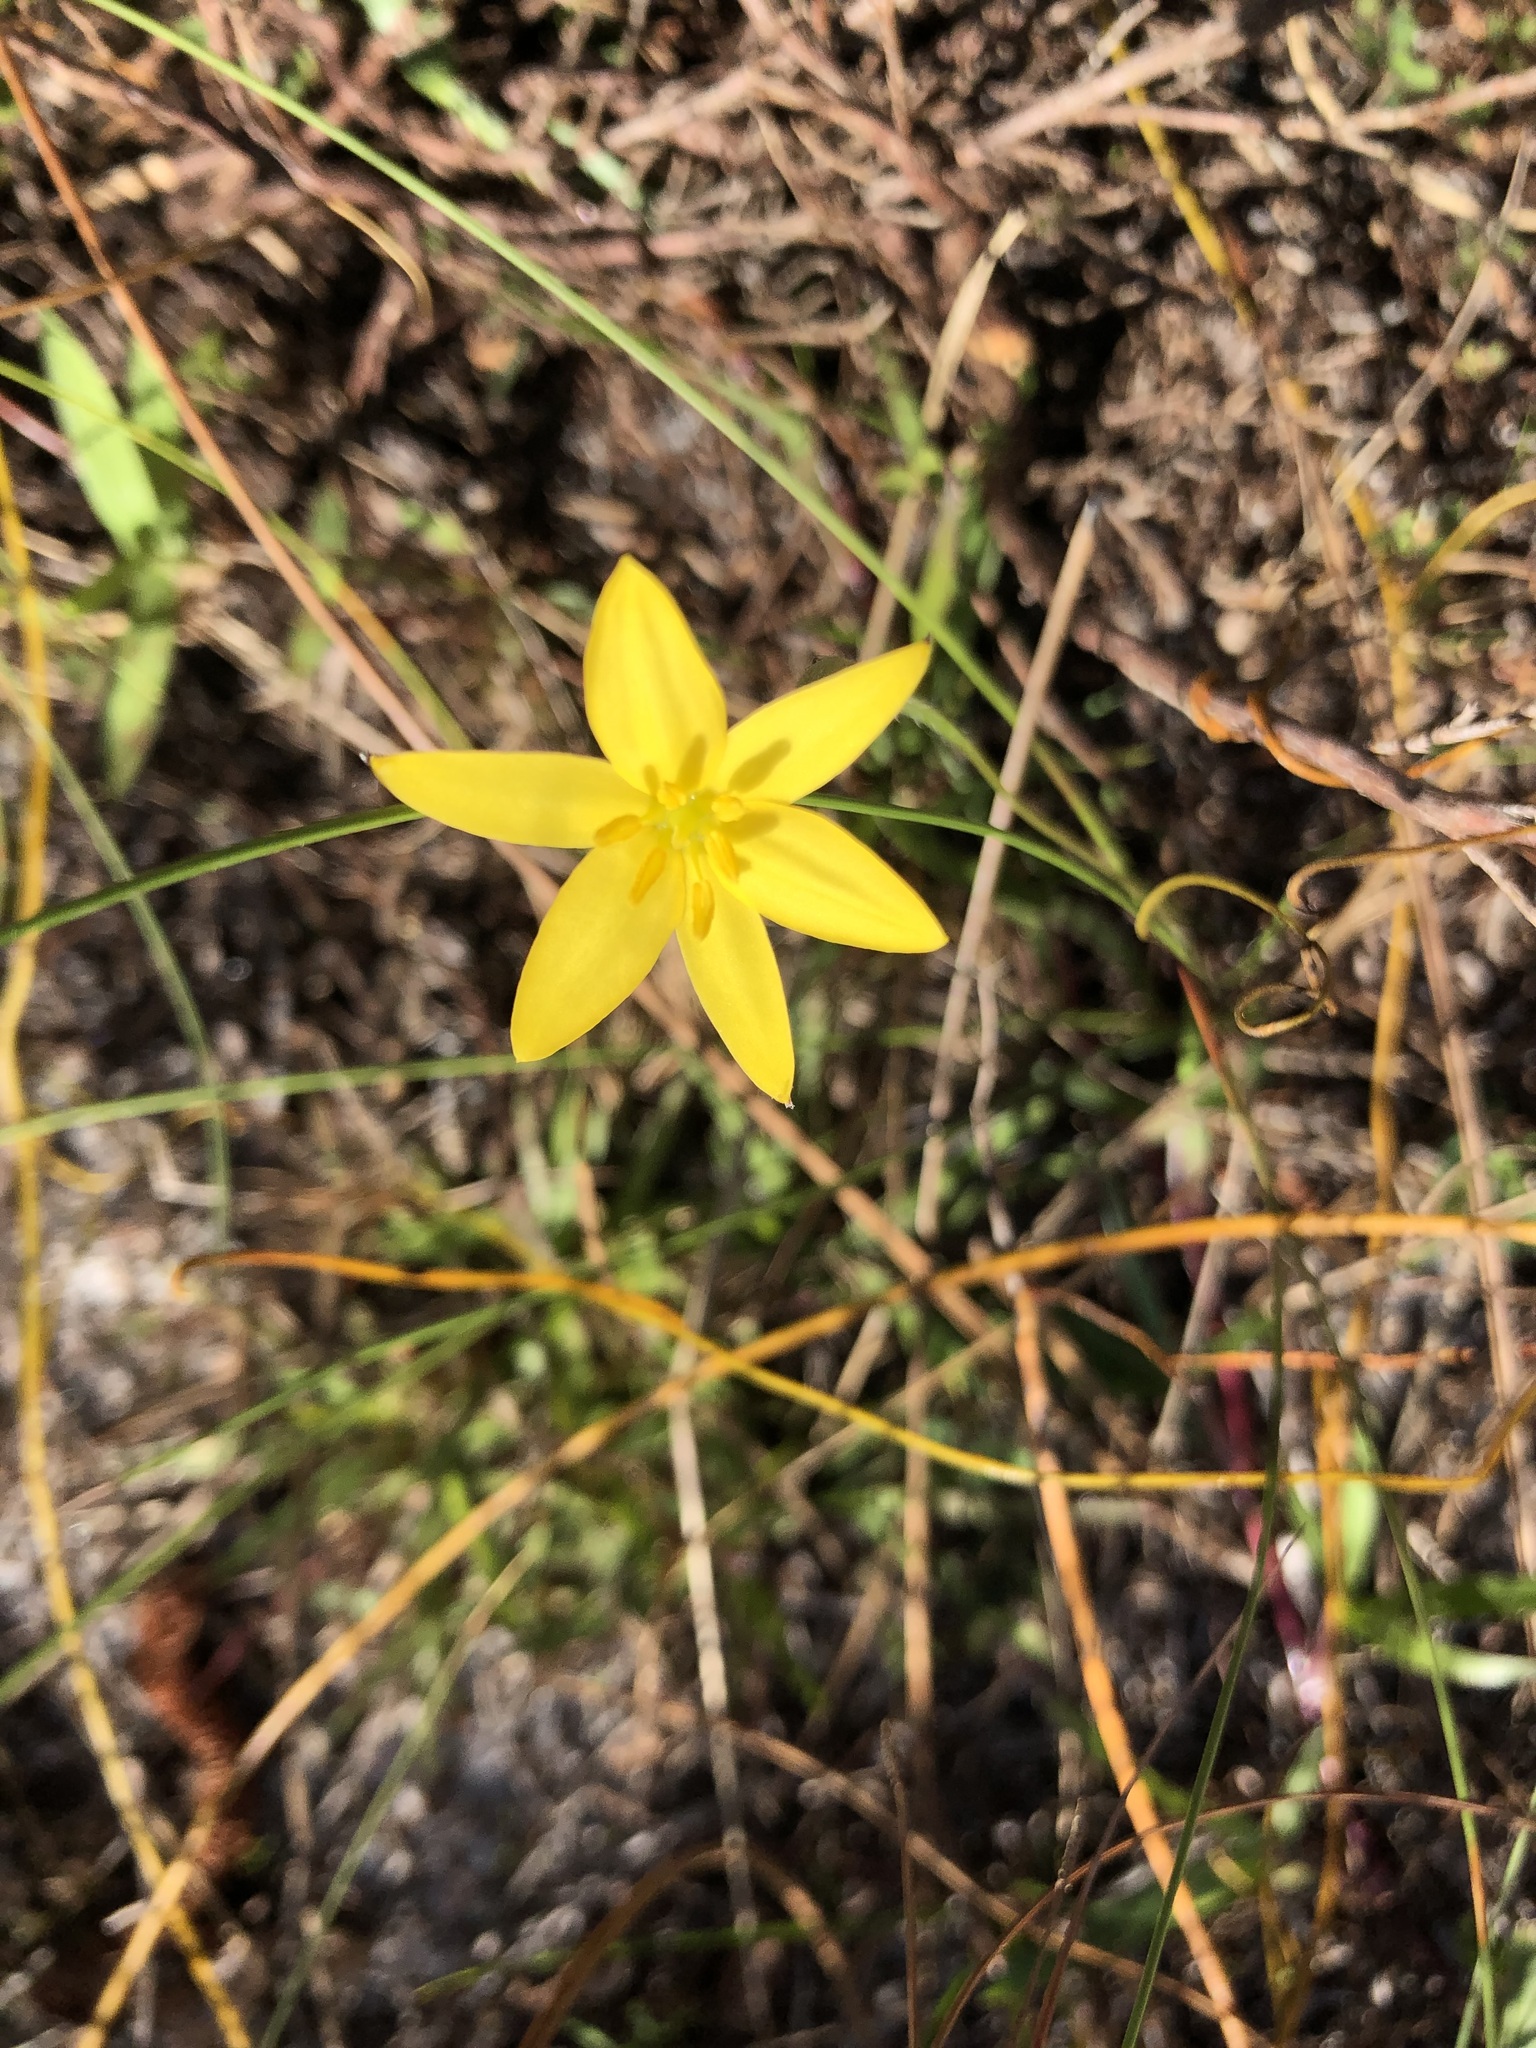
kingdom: Plantae
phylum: Tracheophyta
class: Liliopsida
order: Asparagales
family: Hypoxidaceae
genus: Hypoxis
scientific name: Hypoxis juncea
